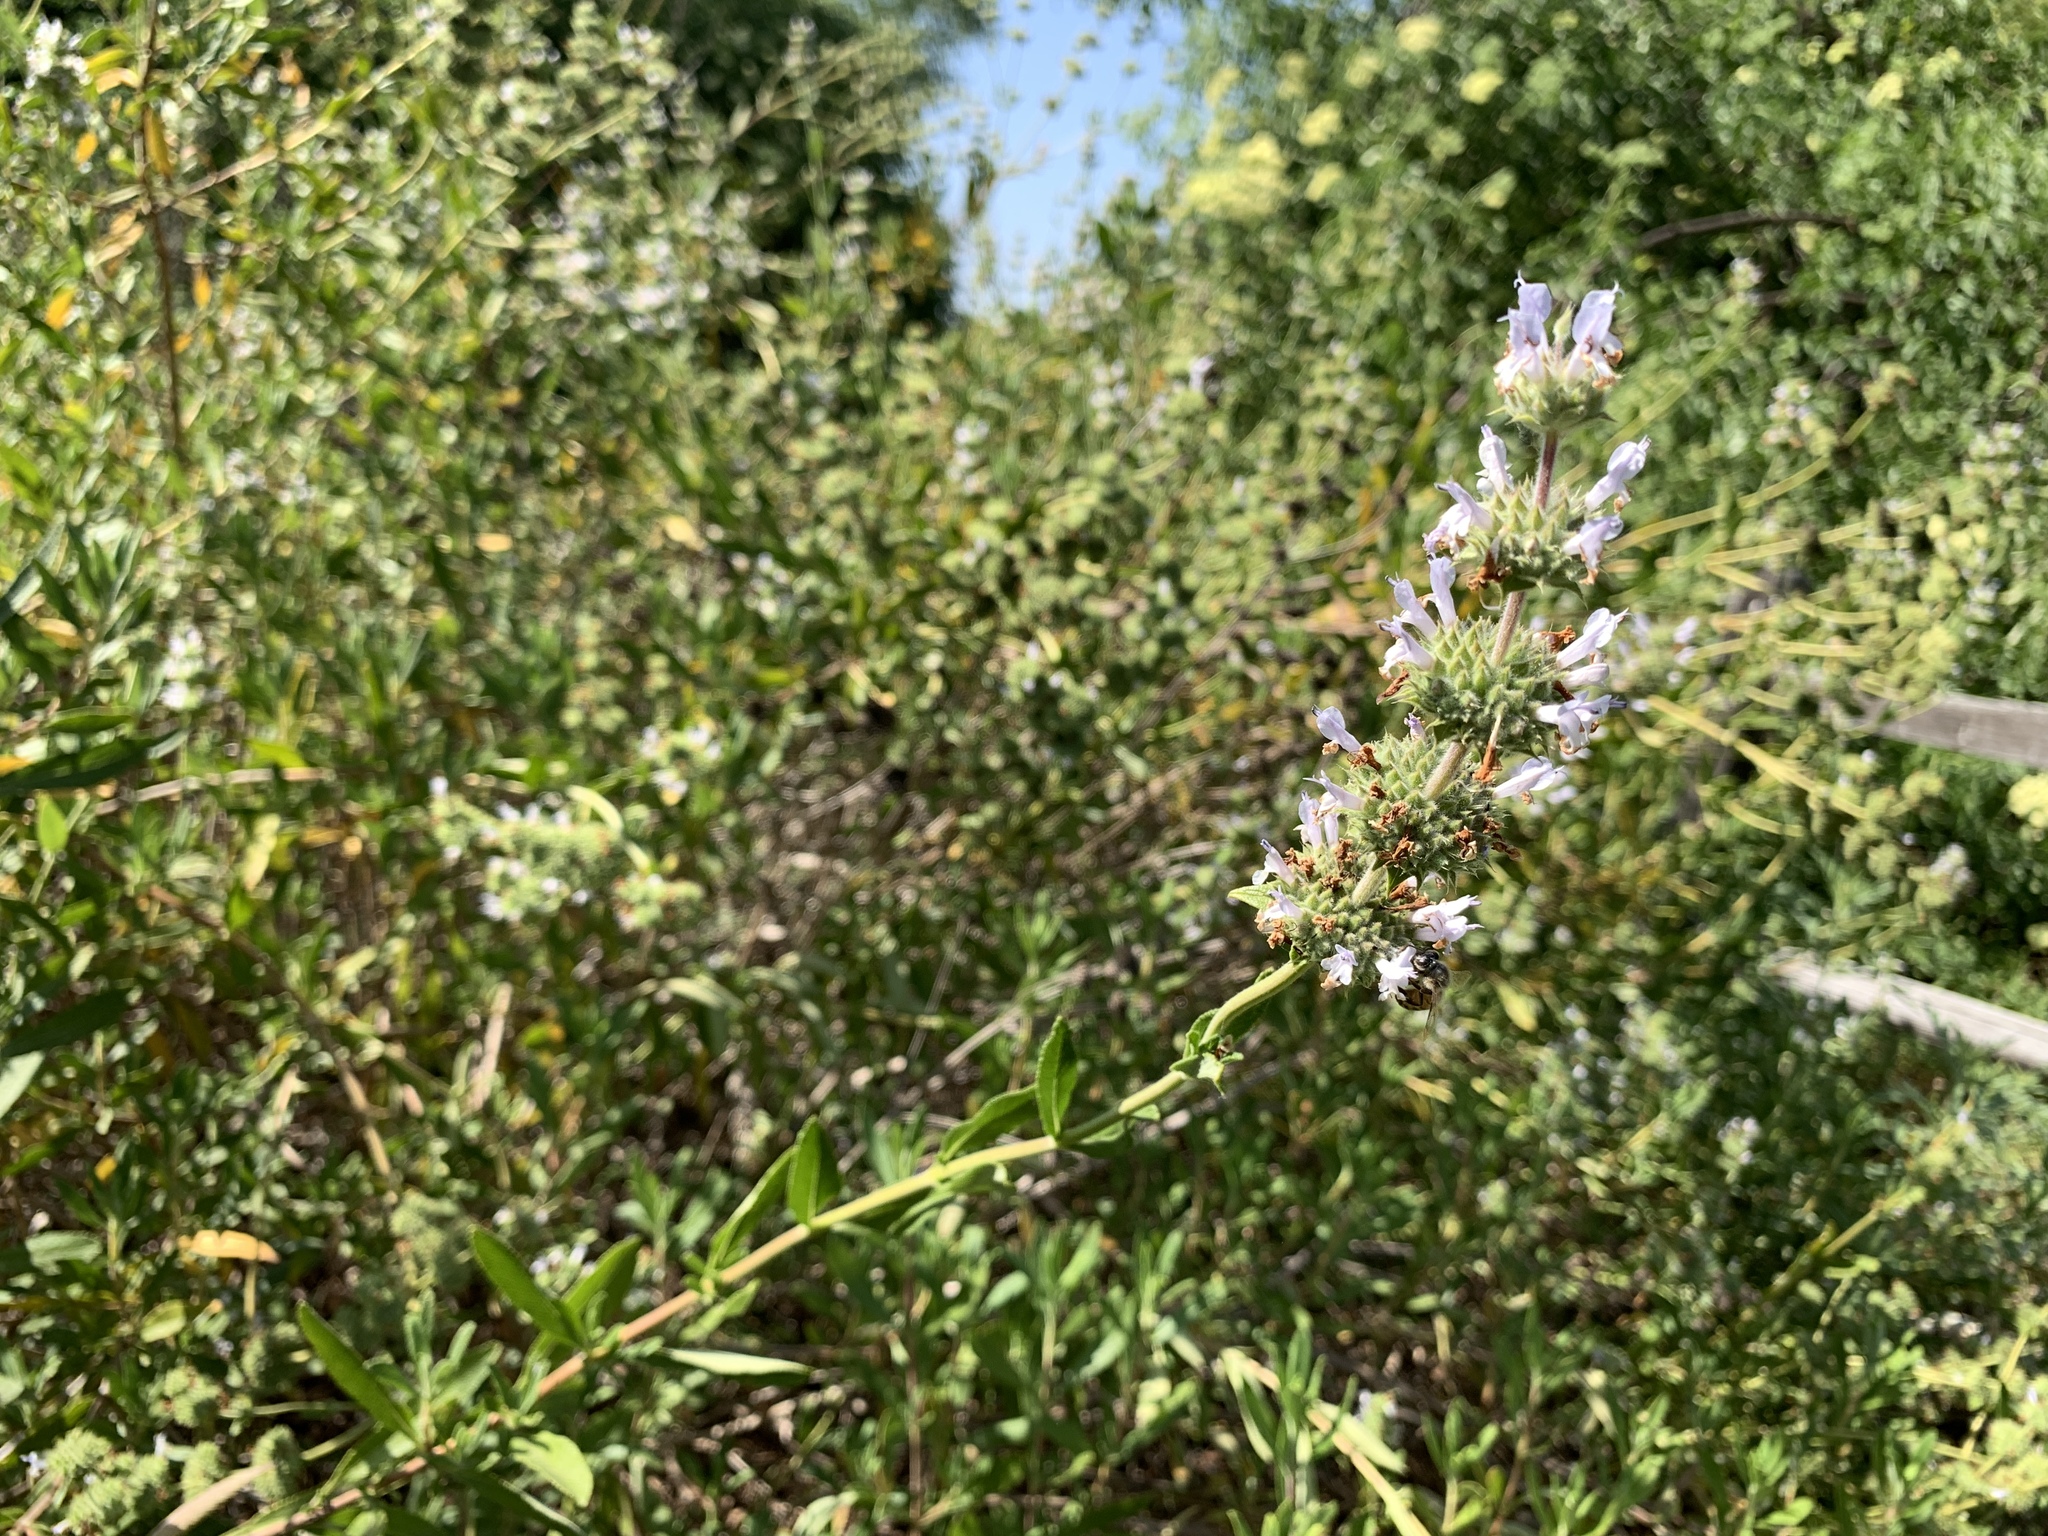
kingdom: Plantae
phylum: Tracheophyta
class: Magnoliopsida
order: Lamiales
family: Lamiaceae
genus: Salvia
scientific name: Salvia mellifera
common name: Black sage
